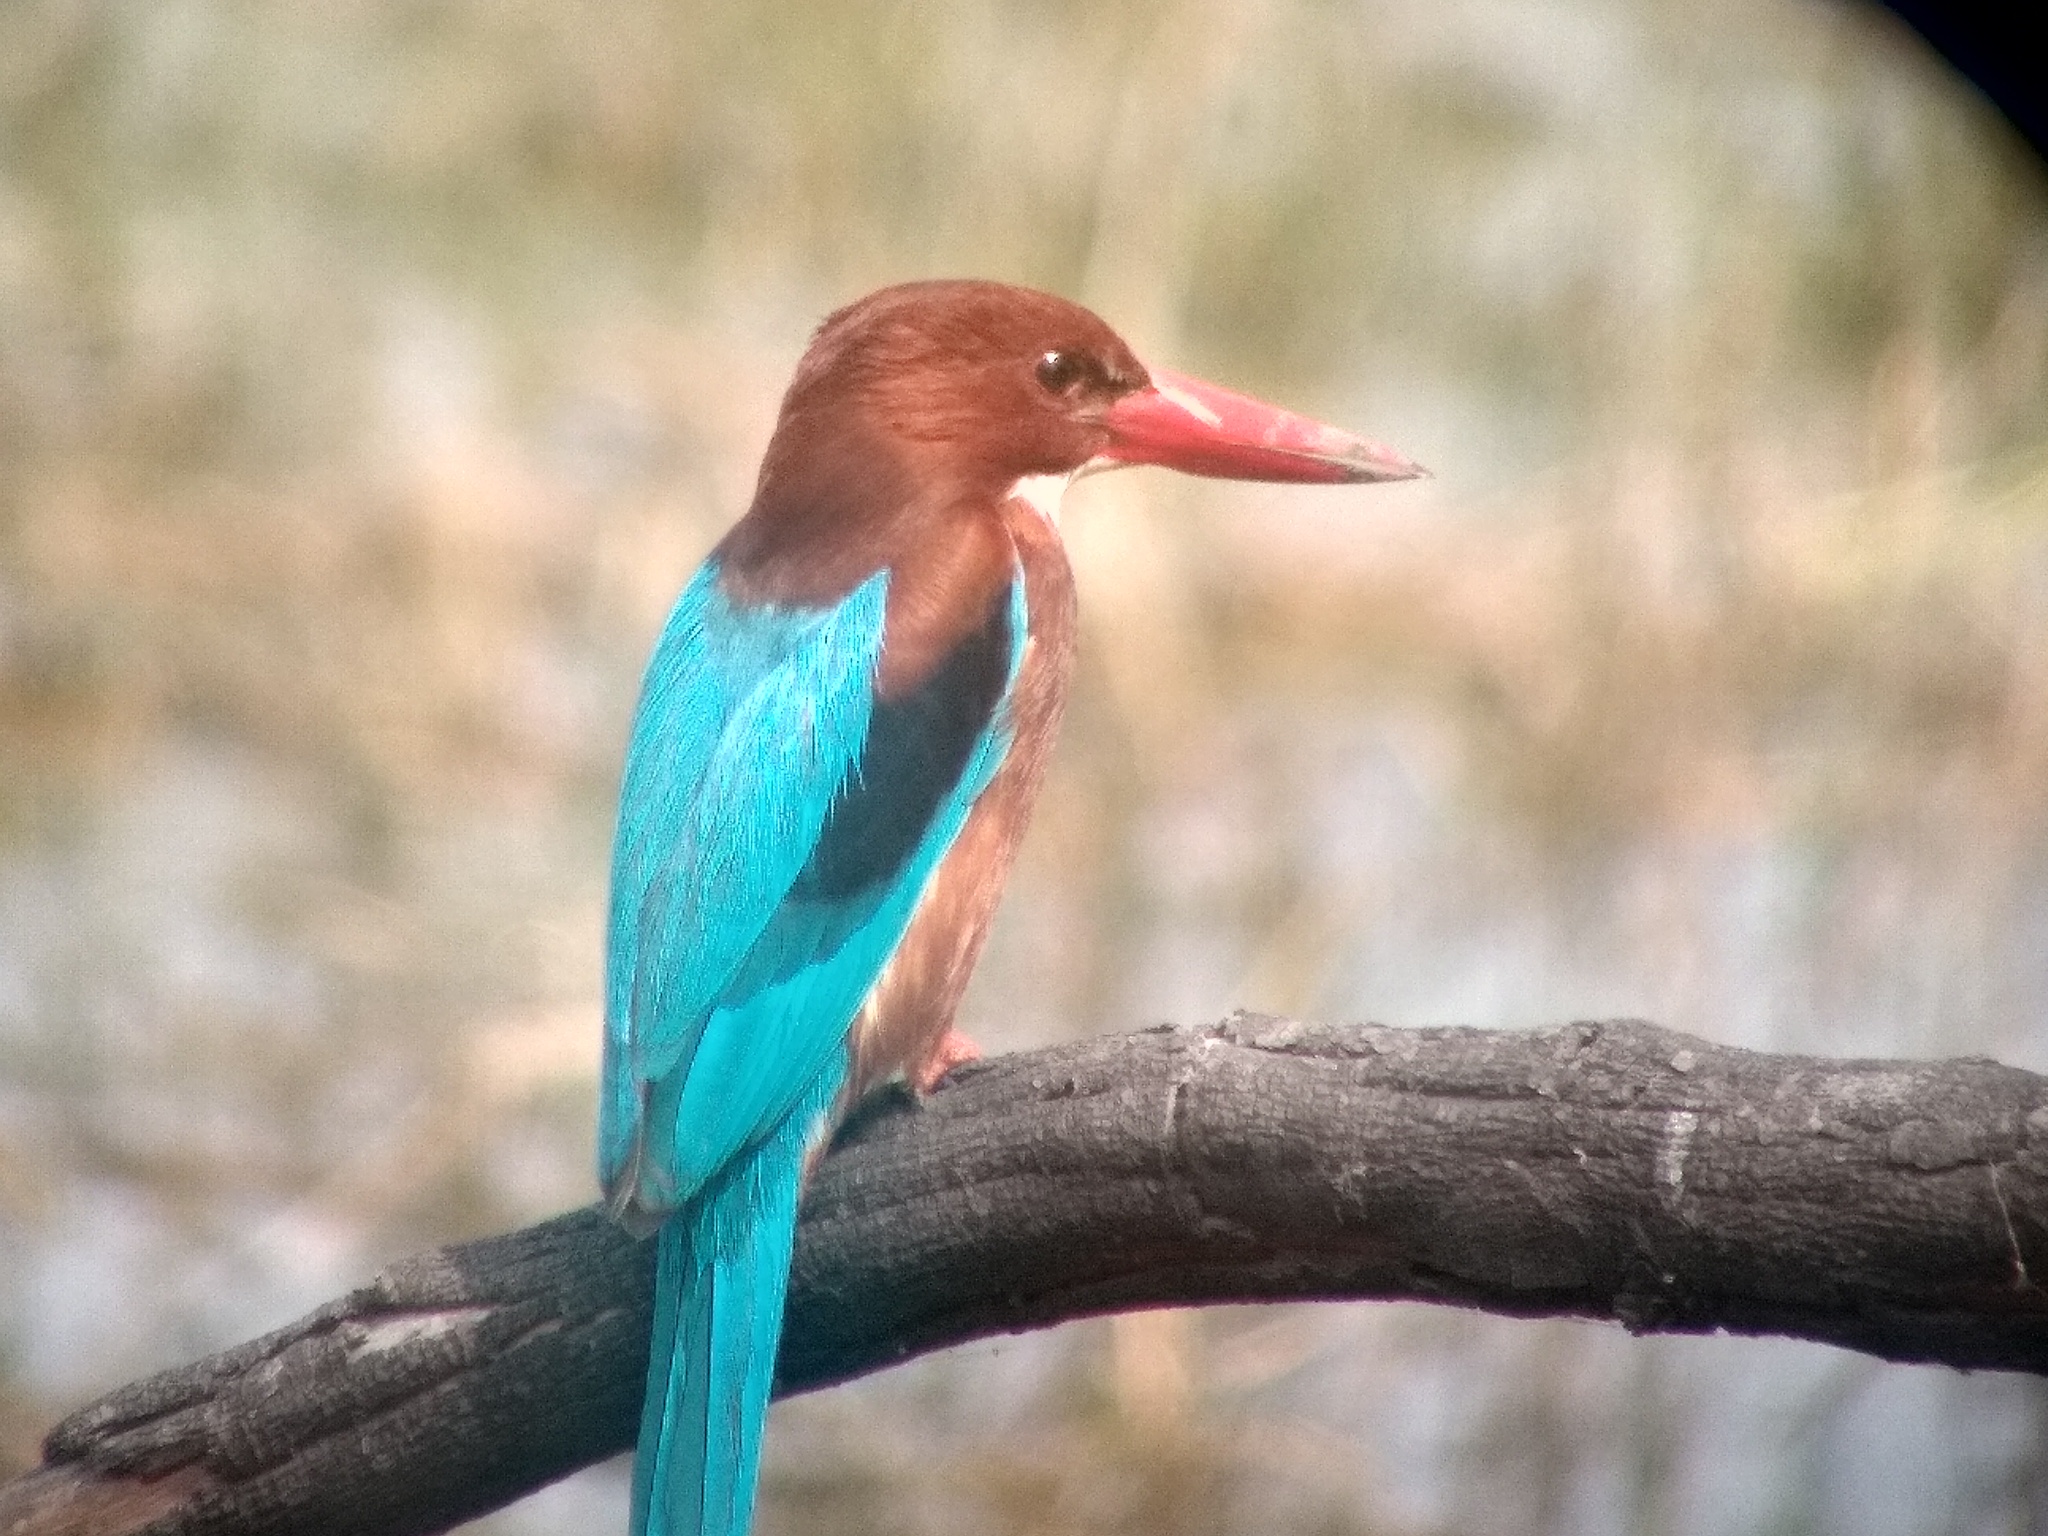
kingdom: Animalia
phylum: Chordata
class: Aves
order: Coraciiformes
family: Alcedinidae
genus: Halcyon
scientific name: Halcyon smyrnensis
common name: White-throated kingfisher
